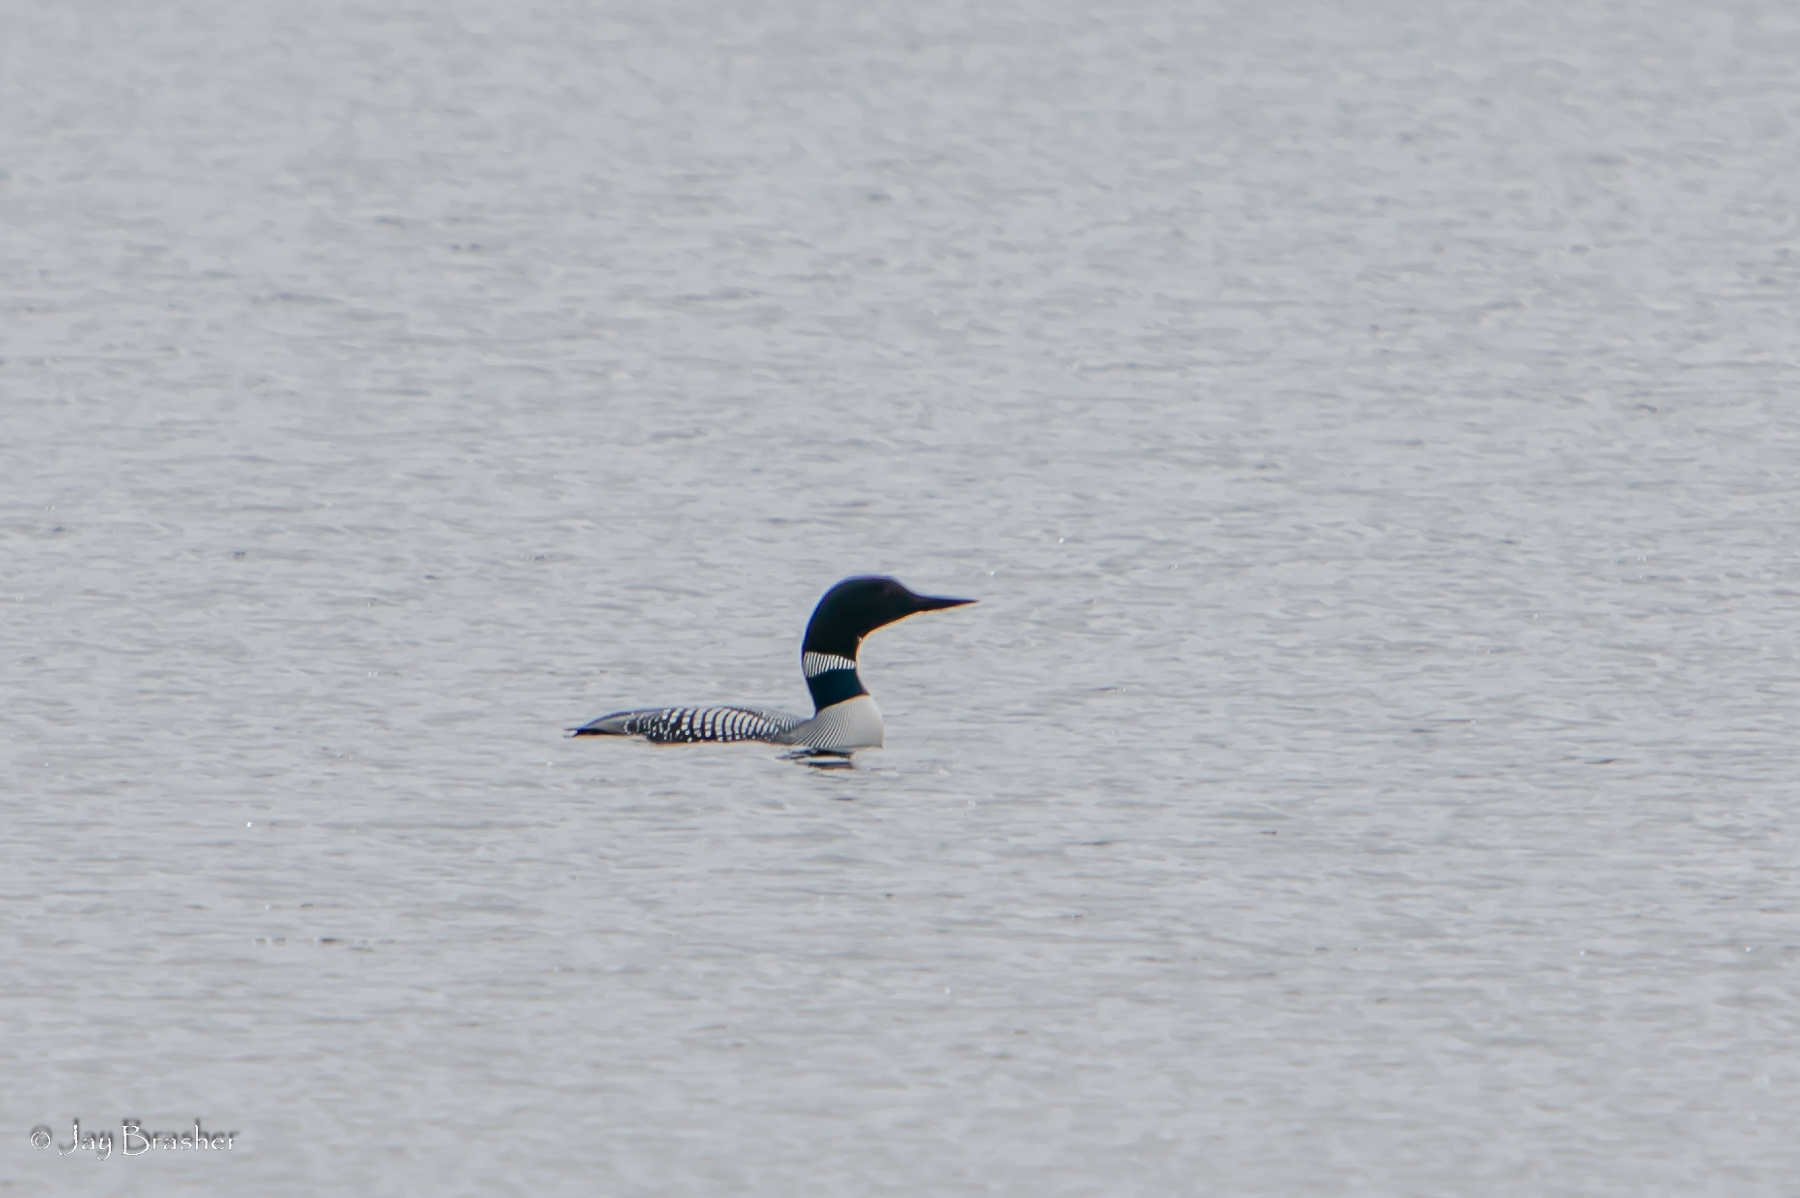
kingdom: Animalia
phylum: Chordata
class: Aves
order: Gaviiformes
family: Gaviidae
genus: Gavia
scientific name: Gavia immer
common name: Common loon
